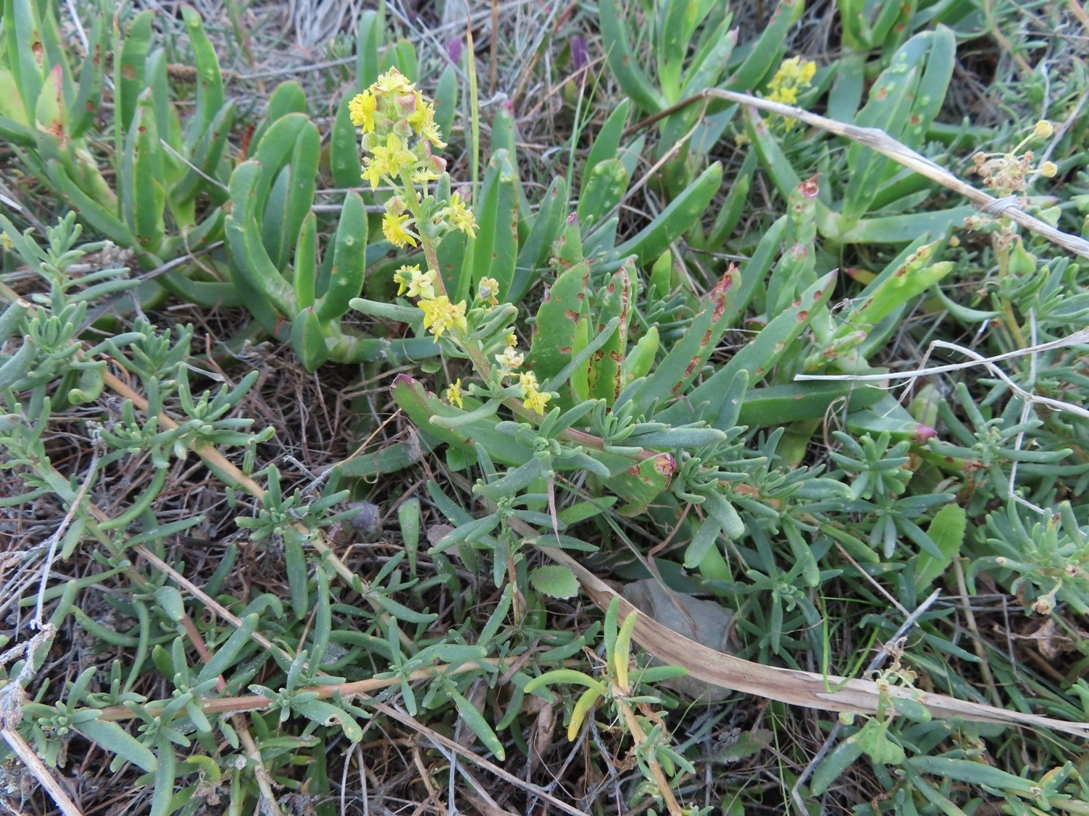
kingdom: Plantae
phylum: Tracheophyta
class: Magnoliopsida
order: Caryophyllales
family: Aizoaceae
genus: Tetragonia
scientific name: Tetragonia fruticosa
